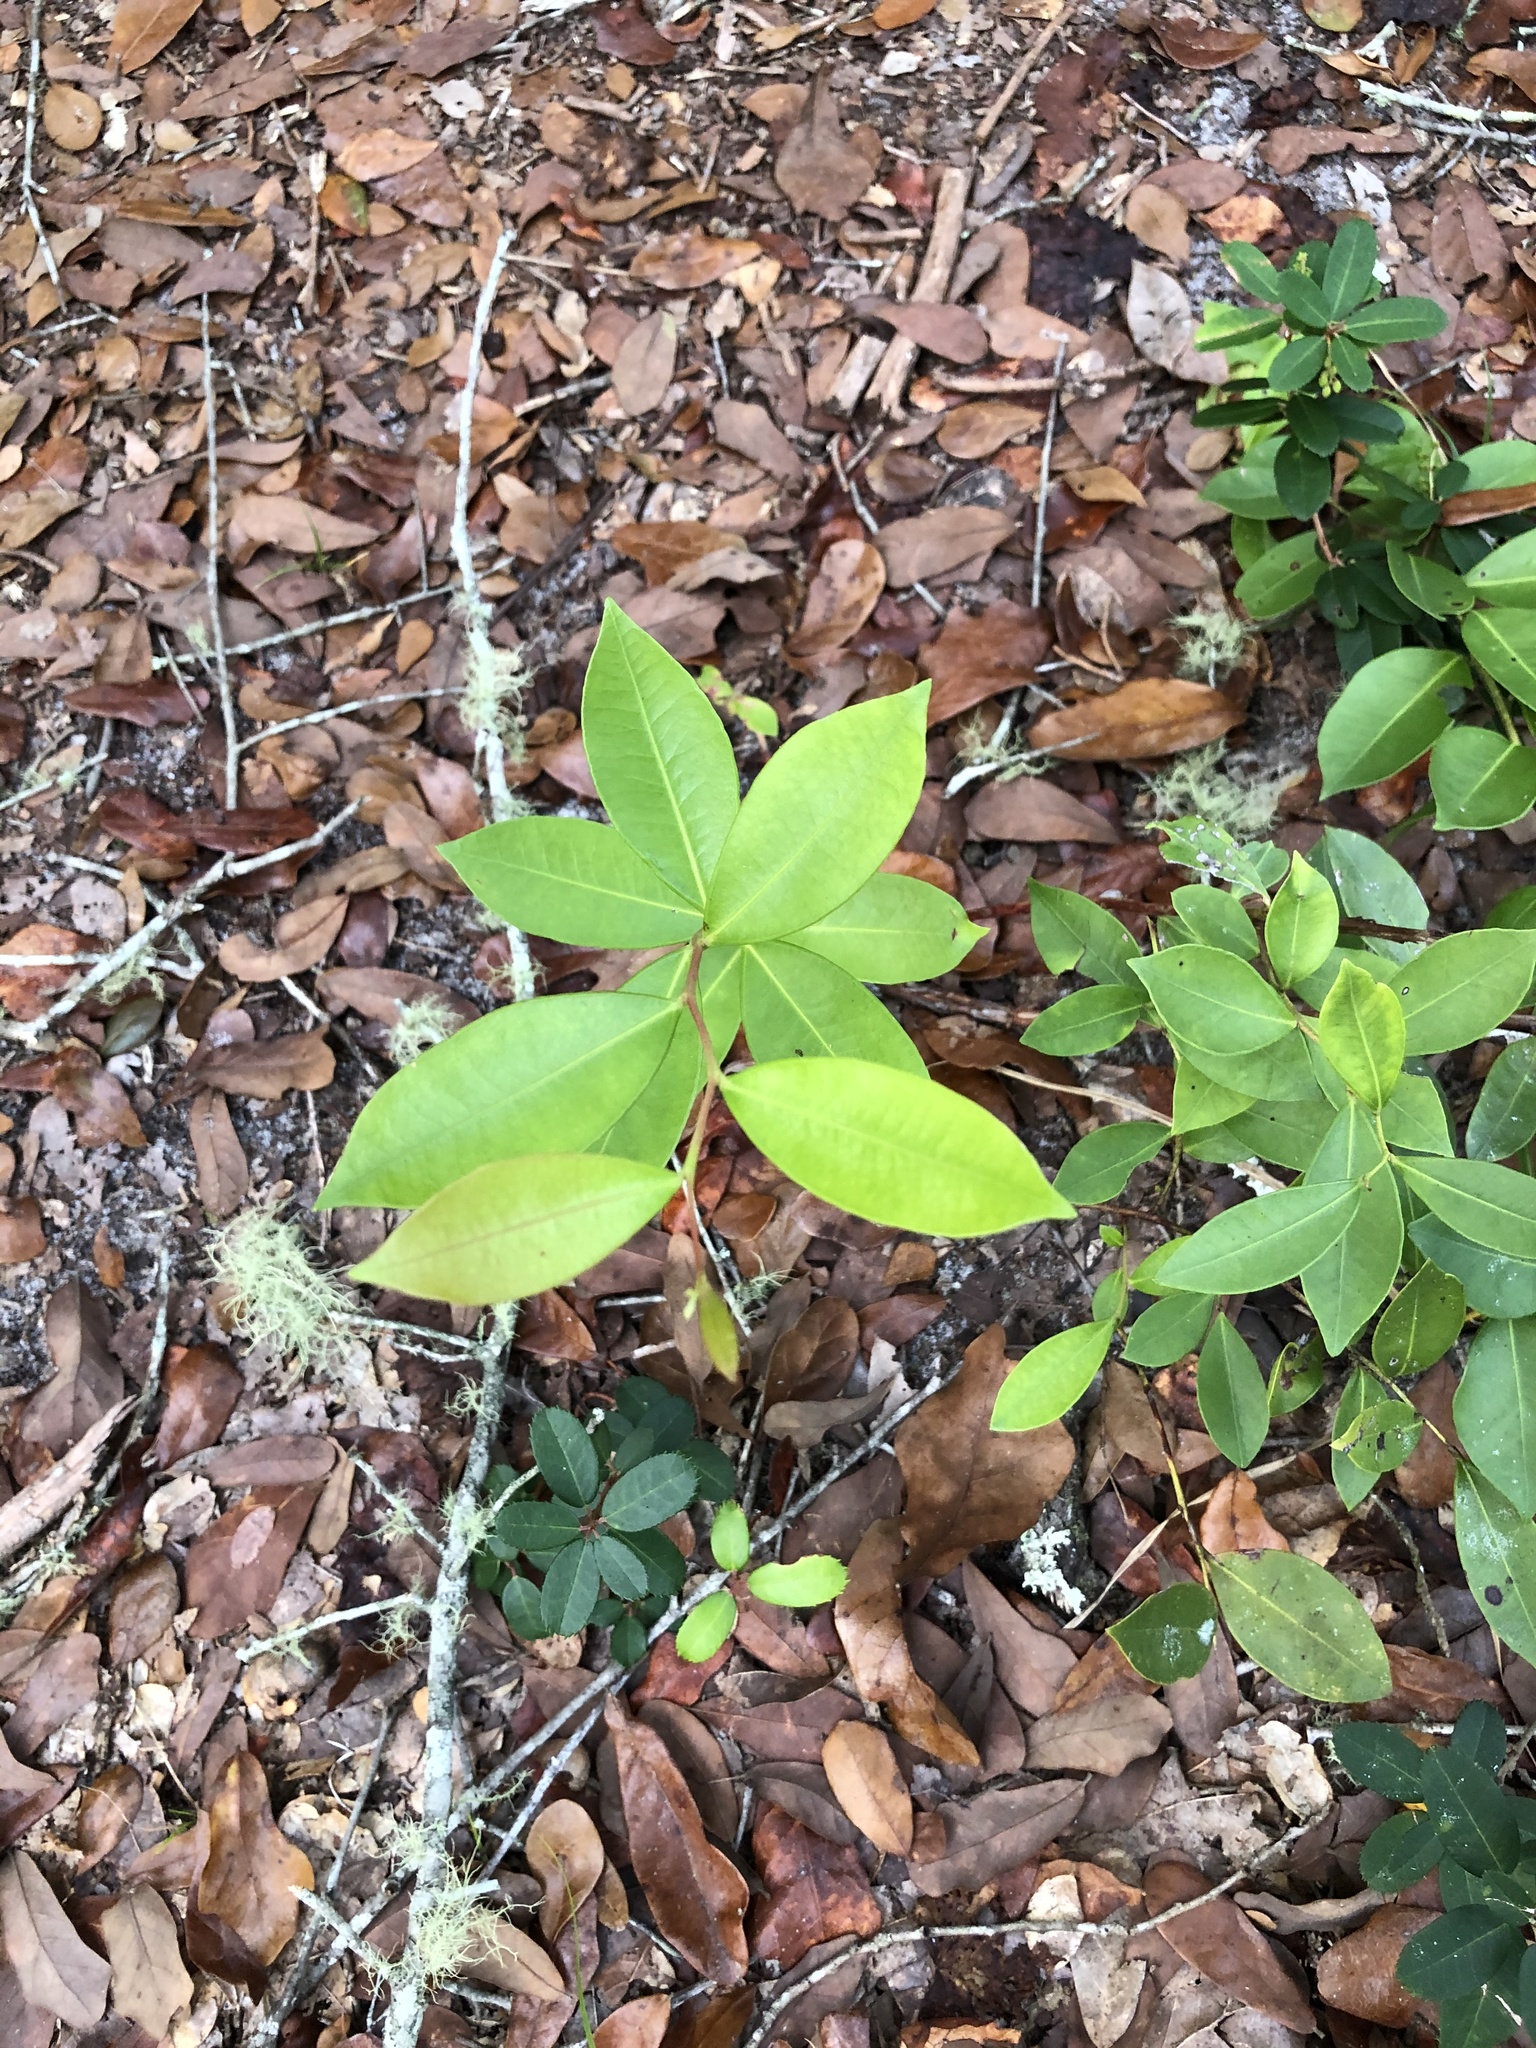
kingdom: Plantae
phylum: Tracheophyta
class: Magnoliopsida
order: Ericales
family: Ericaceae
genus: Lyonia
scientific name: Lyonia lucida
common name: Fetterbush
